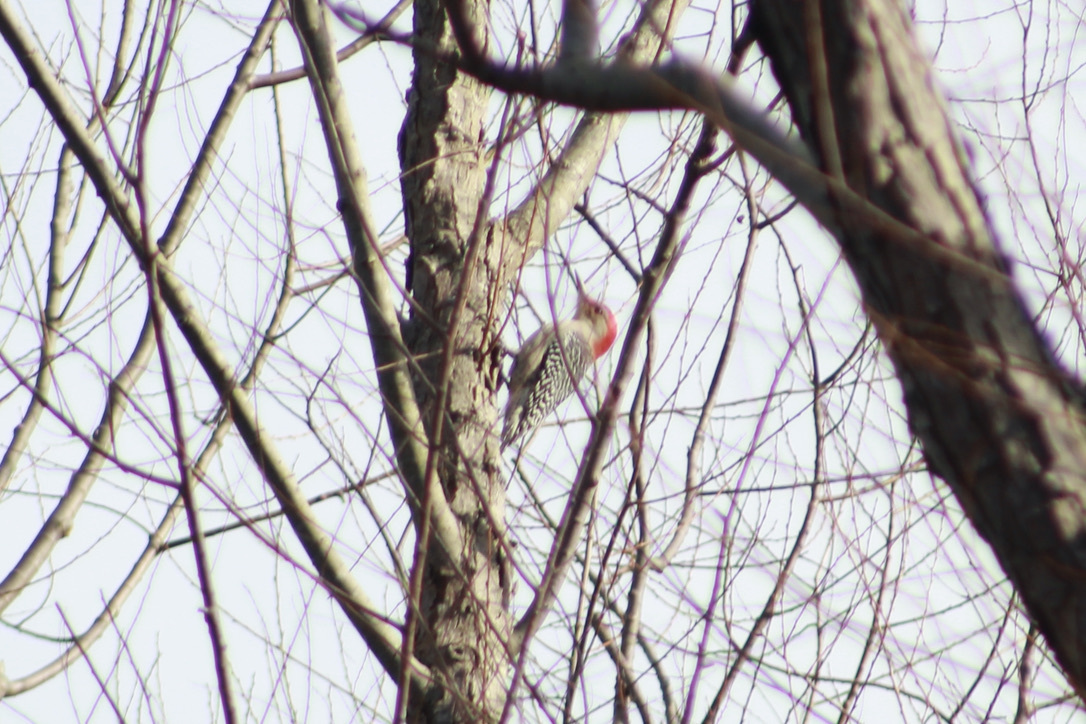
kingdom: Animalia
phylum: Chordata
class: Aves
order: Piciformes
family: Picidae
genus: Melanerpes
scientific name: Melanerpes carolinus
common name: Red-bellied woodpecker
